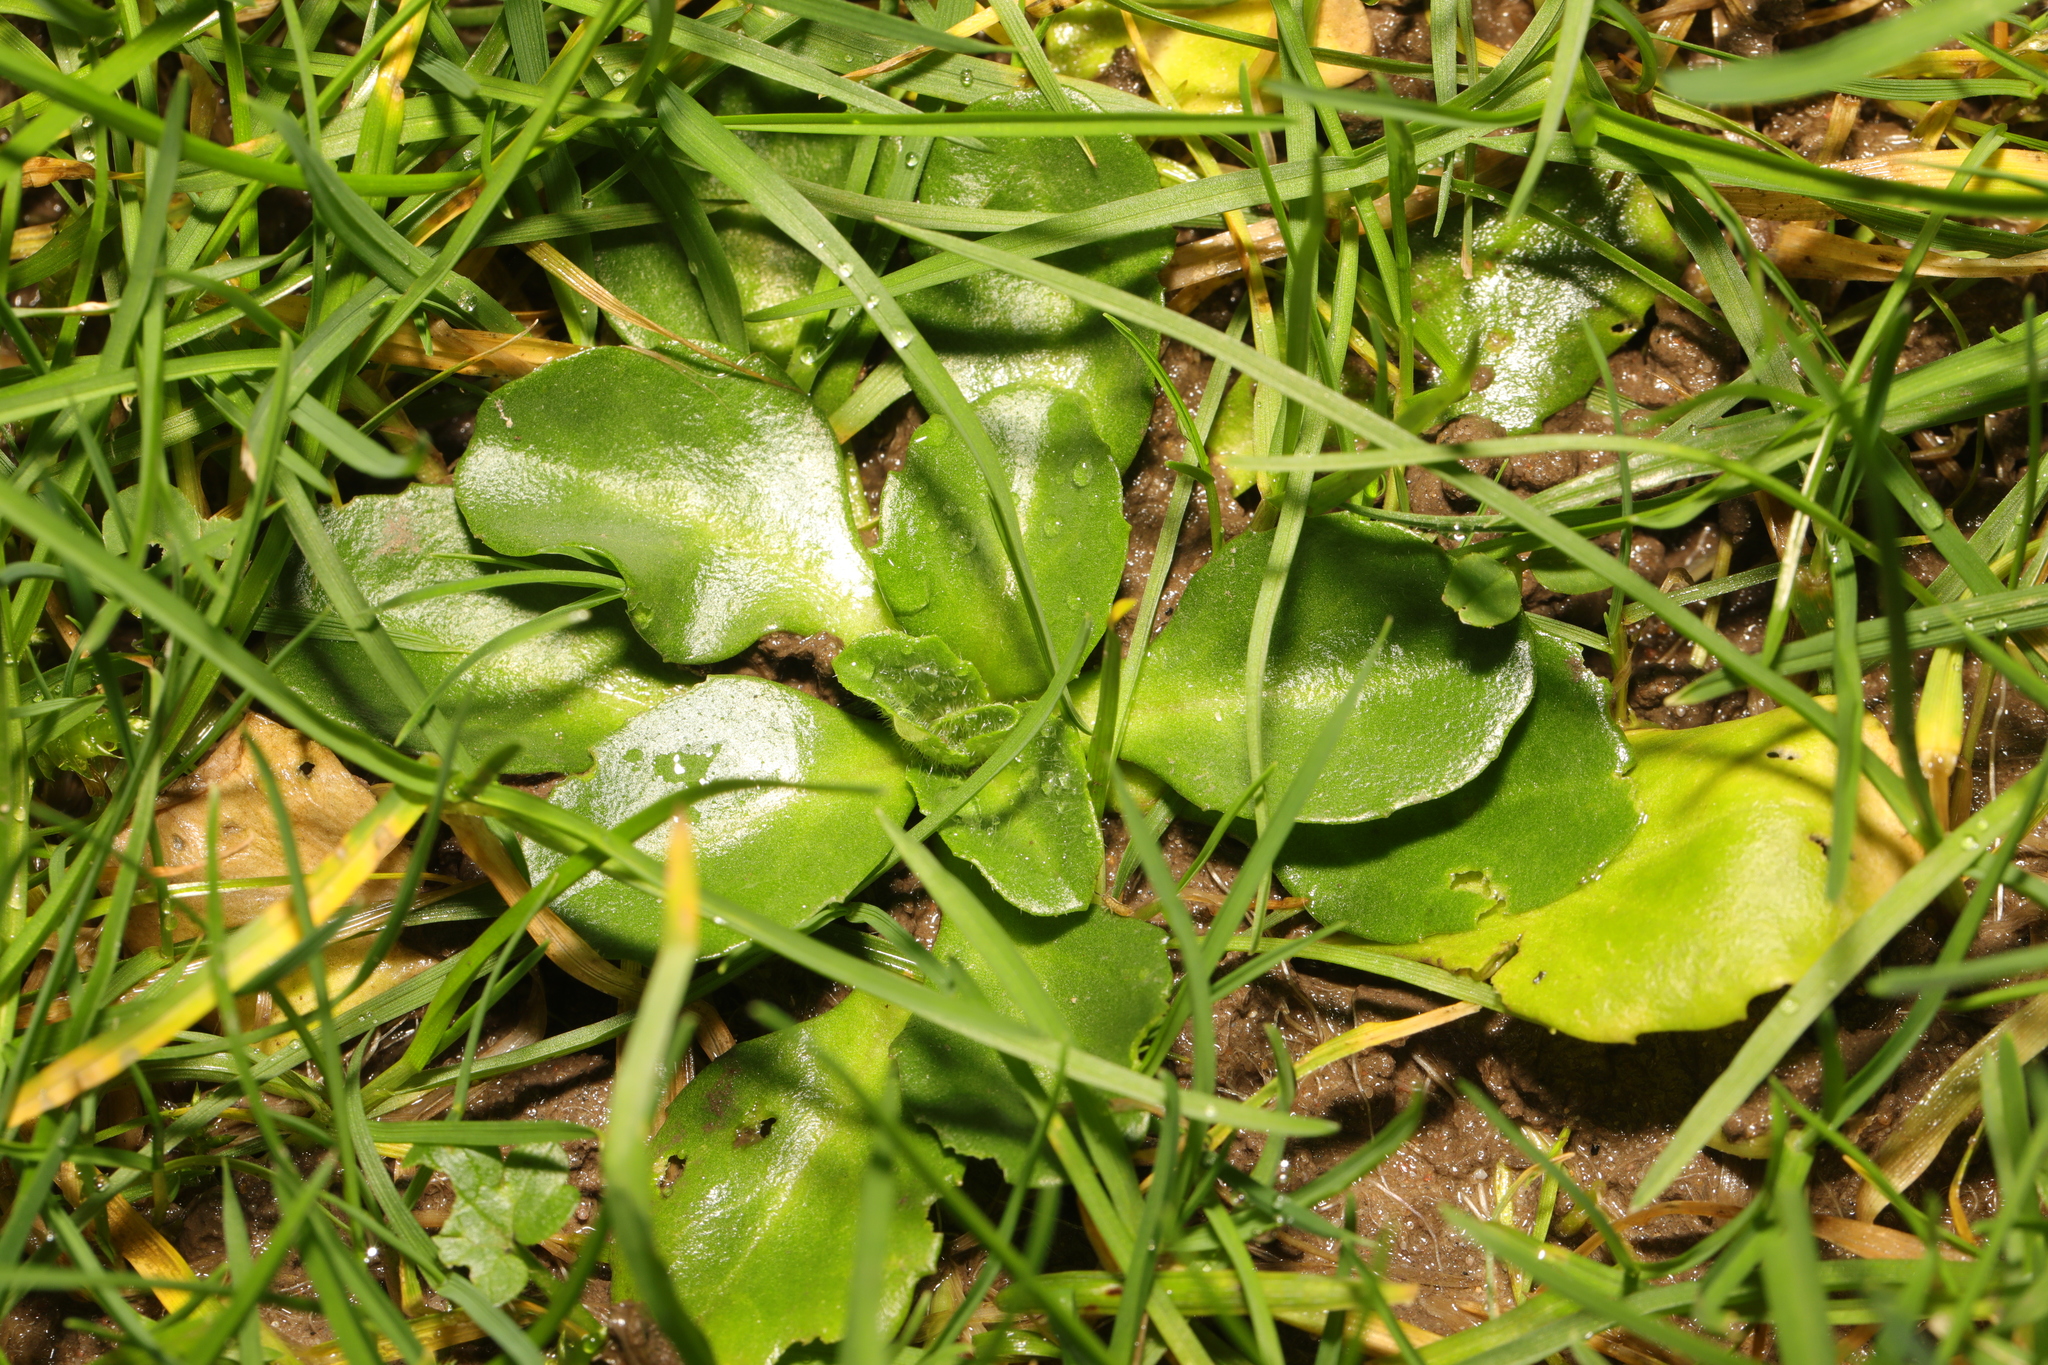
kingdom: Plantae
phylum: Tracheophyta
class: Magnoliopsida
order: Asterales
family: Asteraceae
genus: Bellis
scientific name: Bellis perennis
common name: Lawndaisy
